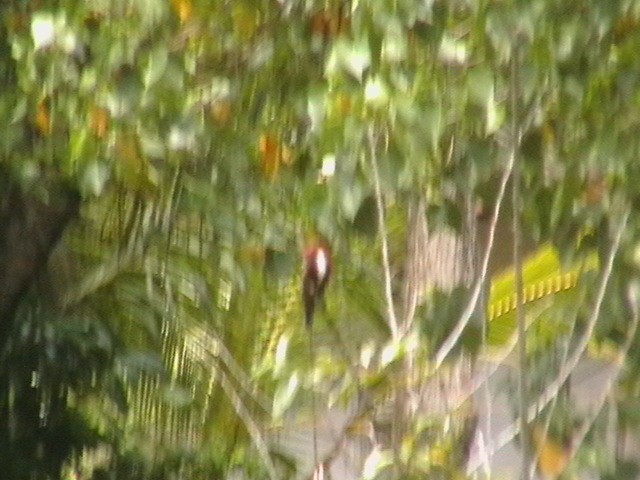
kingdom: Animalia
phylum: Chordata
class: Aves
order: Coraciiformes
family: Alcedinidae
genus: Halcyon
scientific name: Halcyon smyrnensis
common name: White-throated kingfisher
